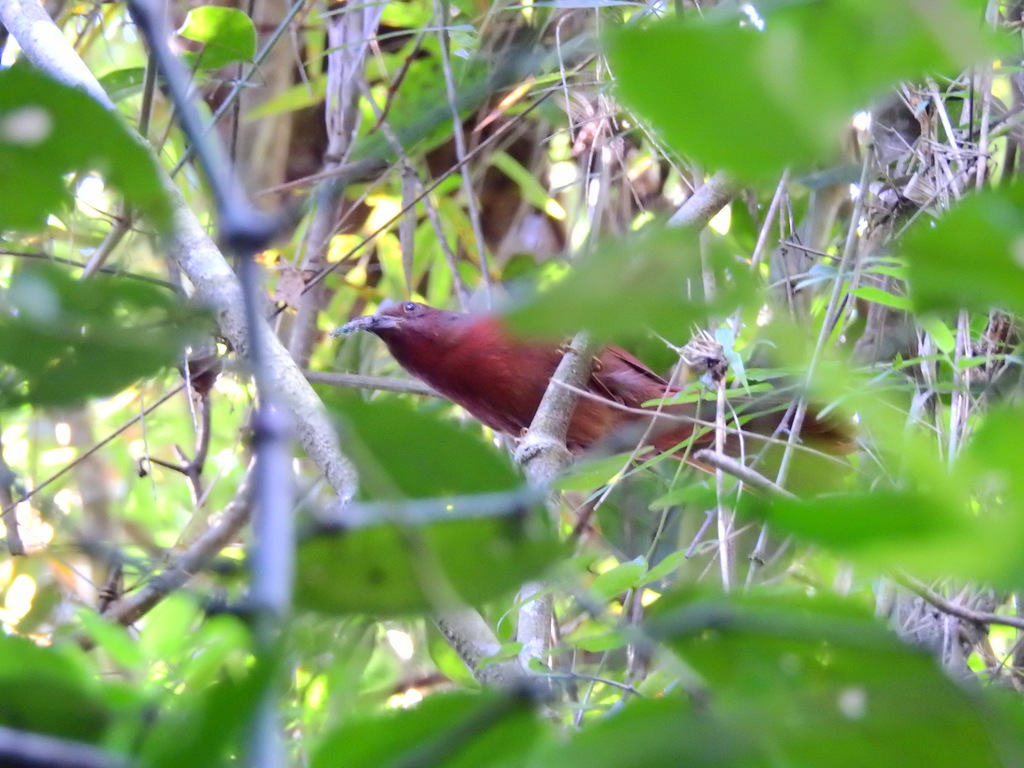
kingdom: Animalia
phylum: Chordata
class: Aves
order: Passeriformes
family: Cardinalidae
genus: Habia
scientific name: Habia rubica
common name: Red-crowned ant-tanager
